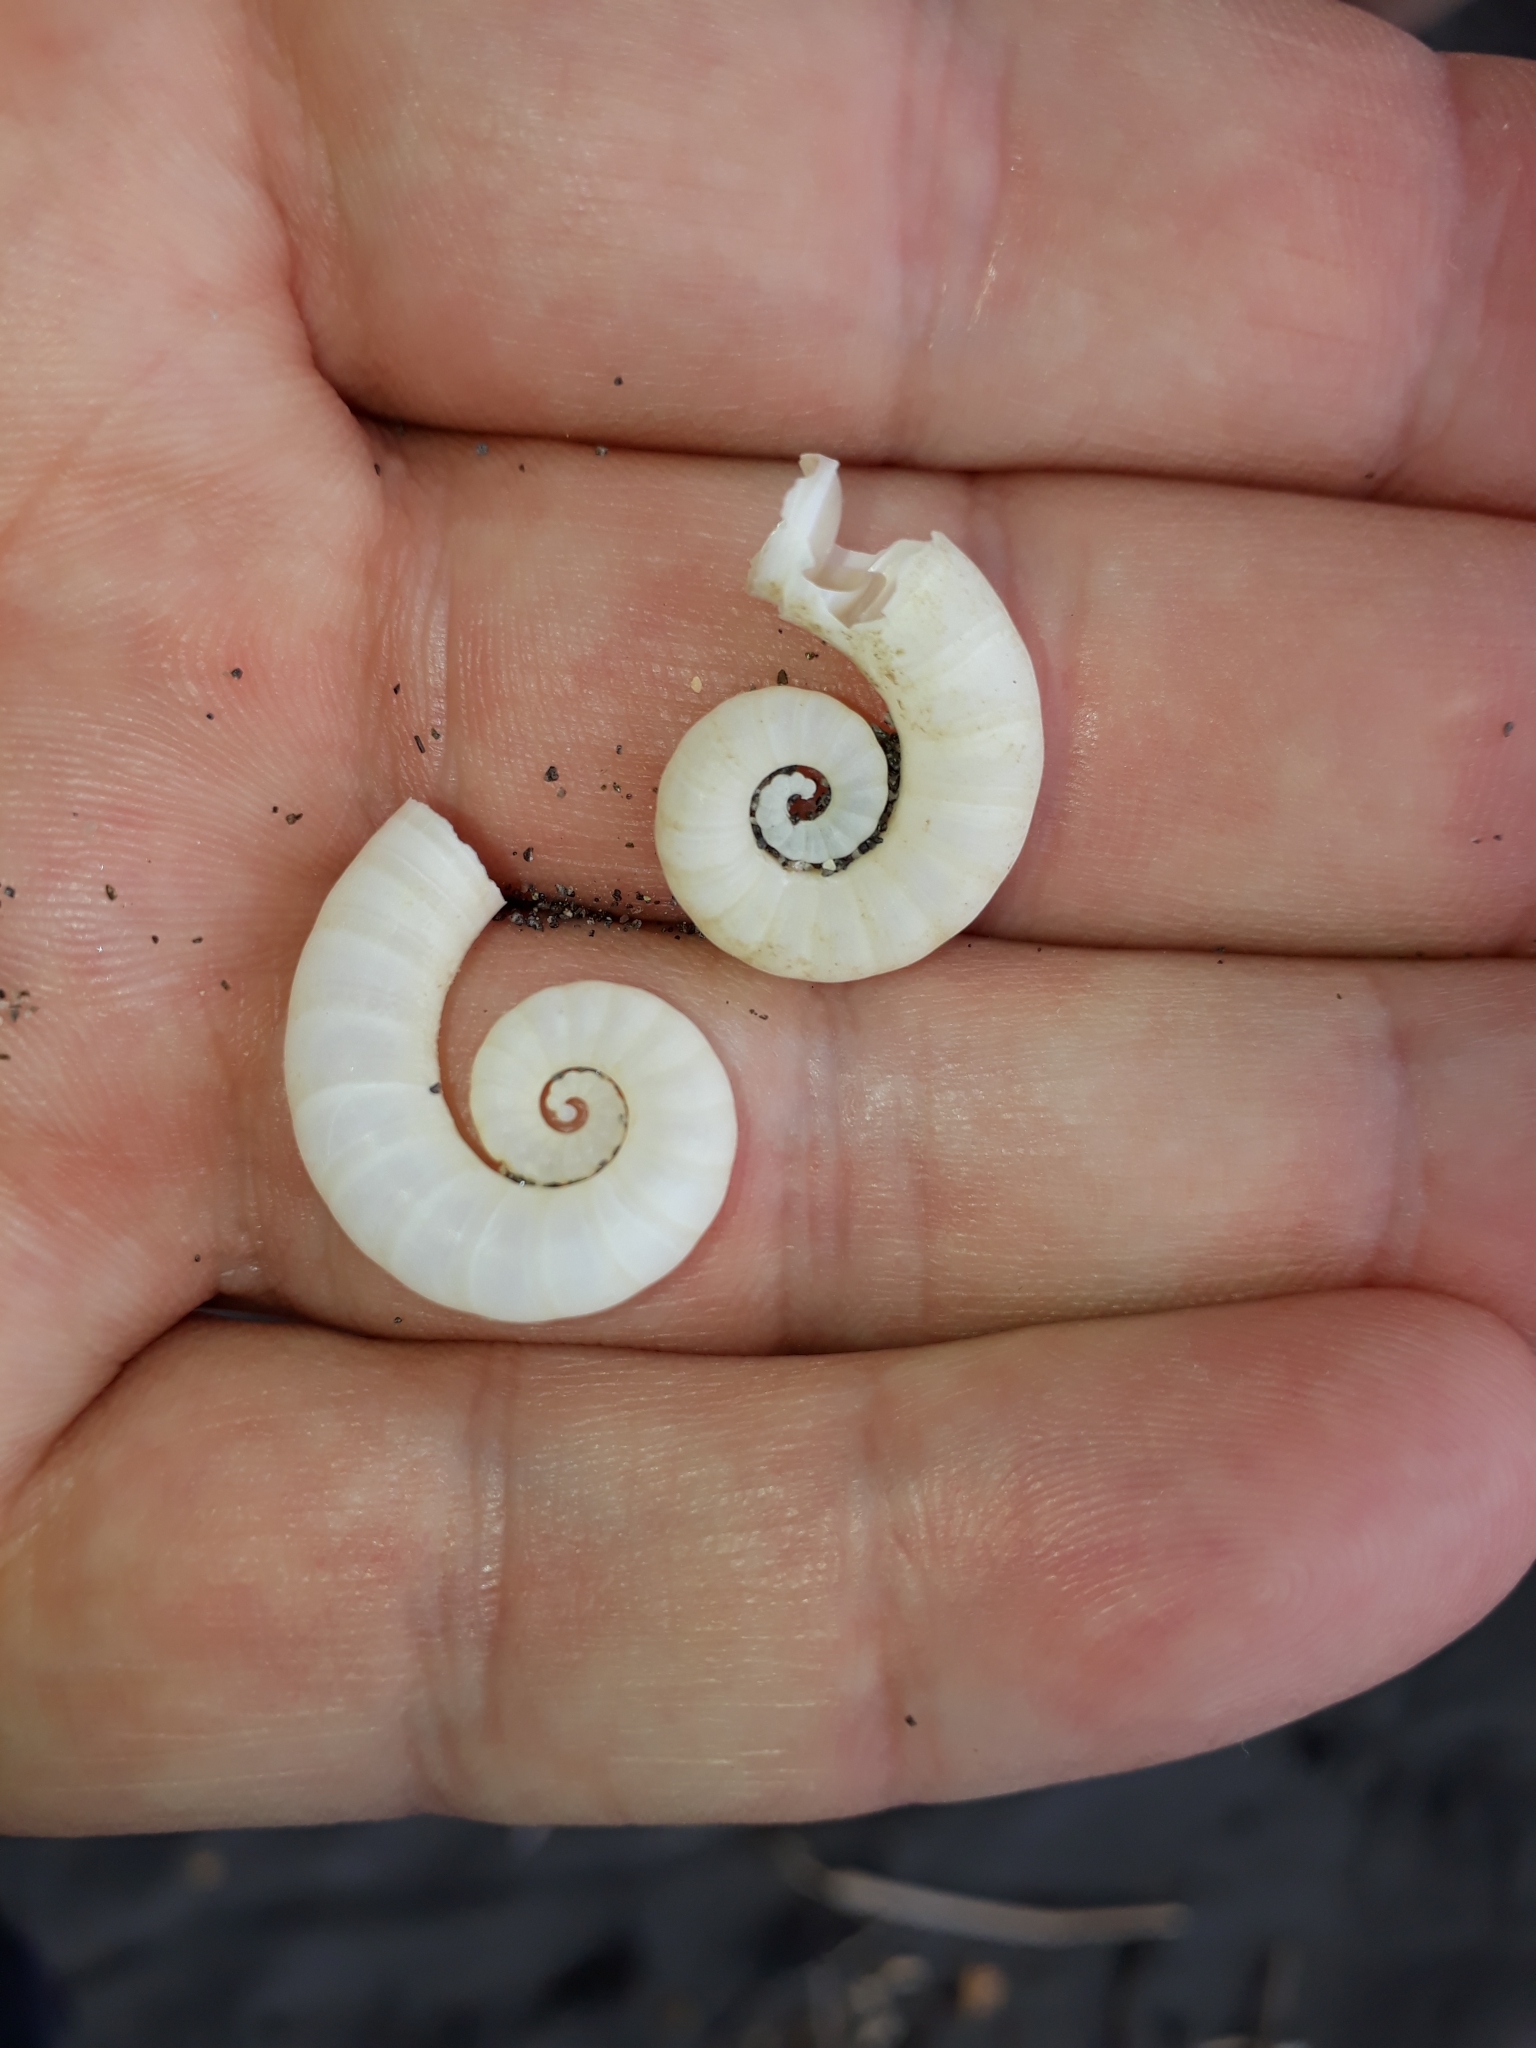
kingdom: Animalia
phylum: Mollusca
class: Cephalopoda
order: Spirulida
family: Spirulidae
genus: Spirula
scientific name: Spirula spirula
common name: Ram's horn squid
